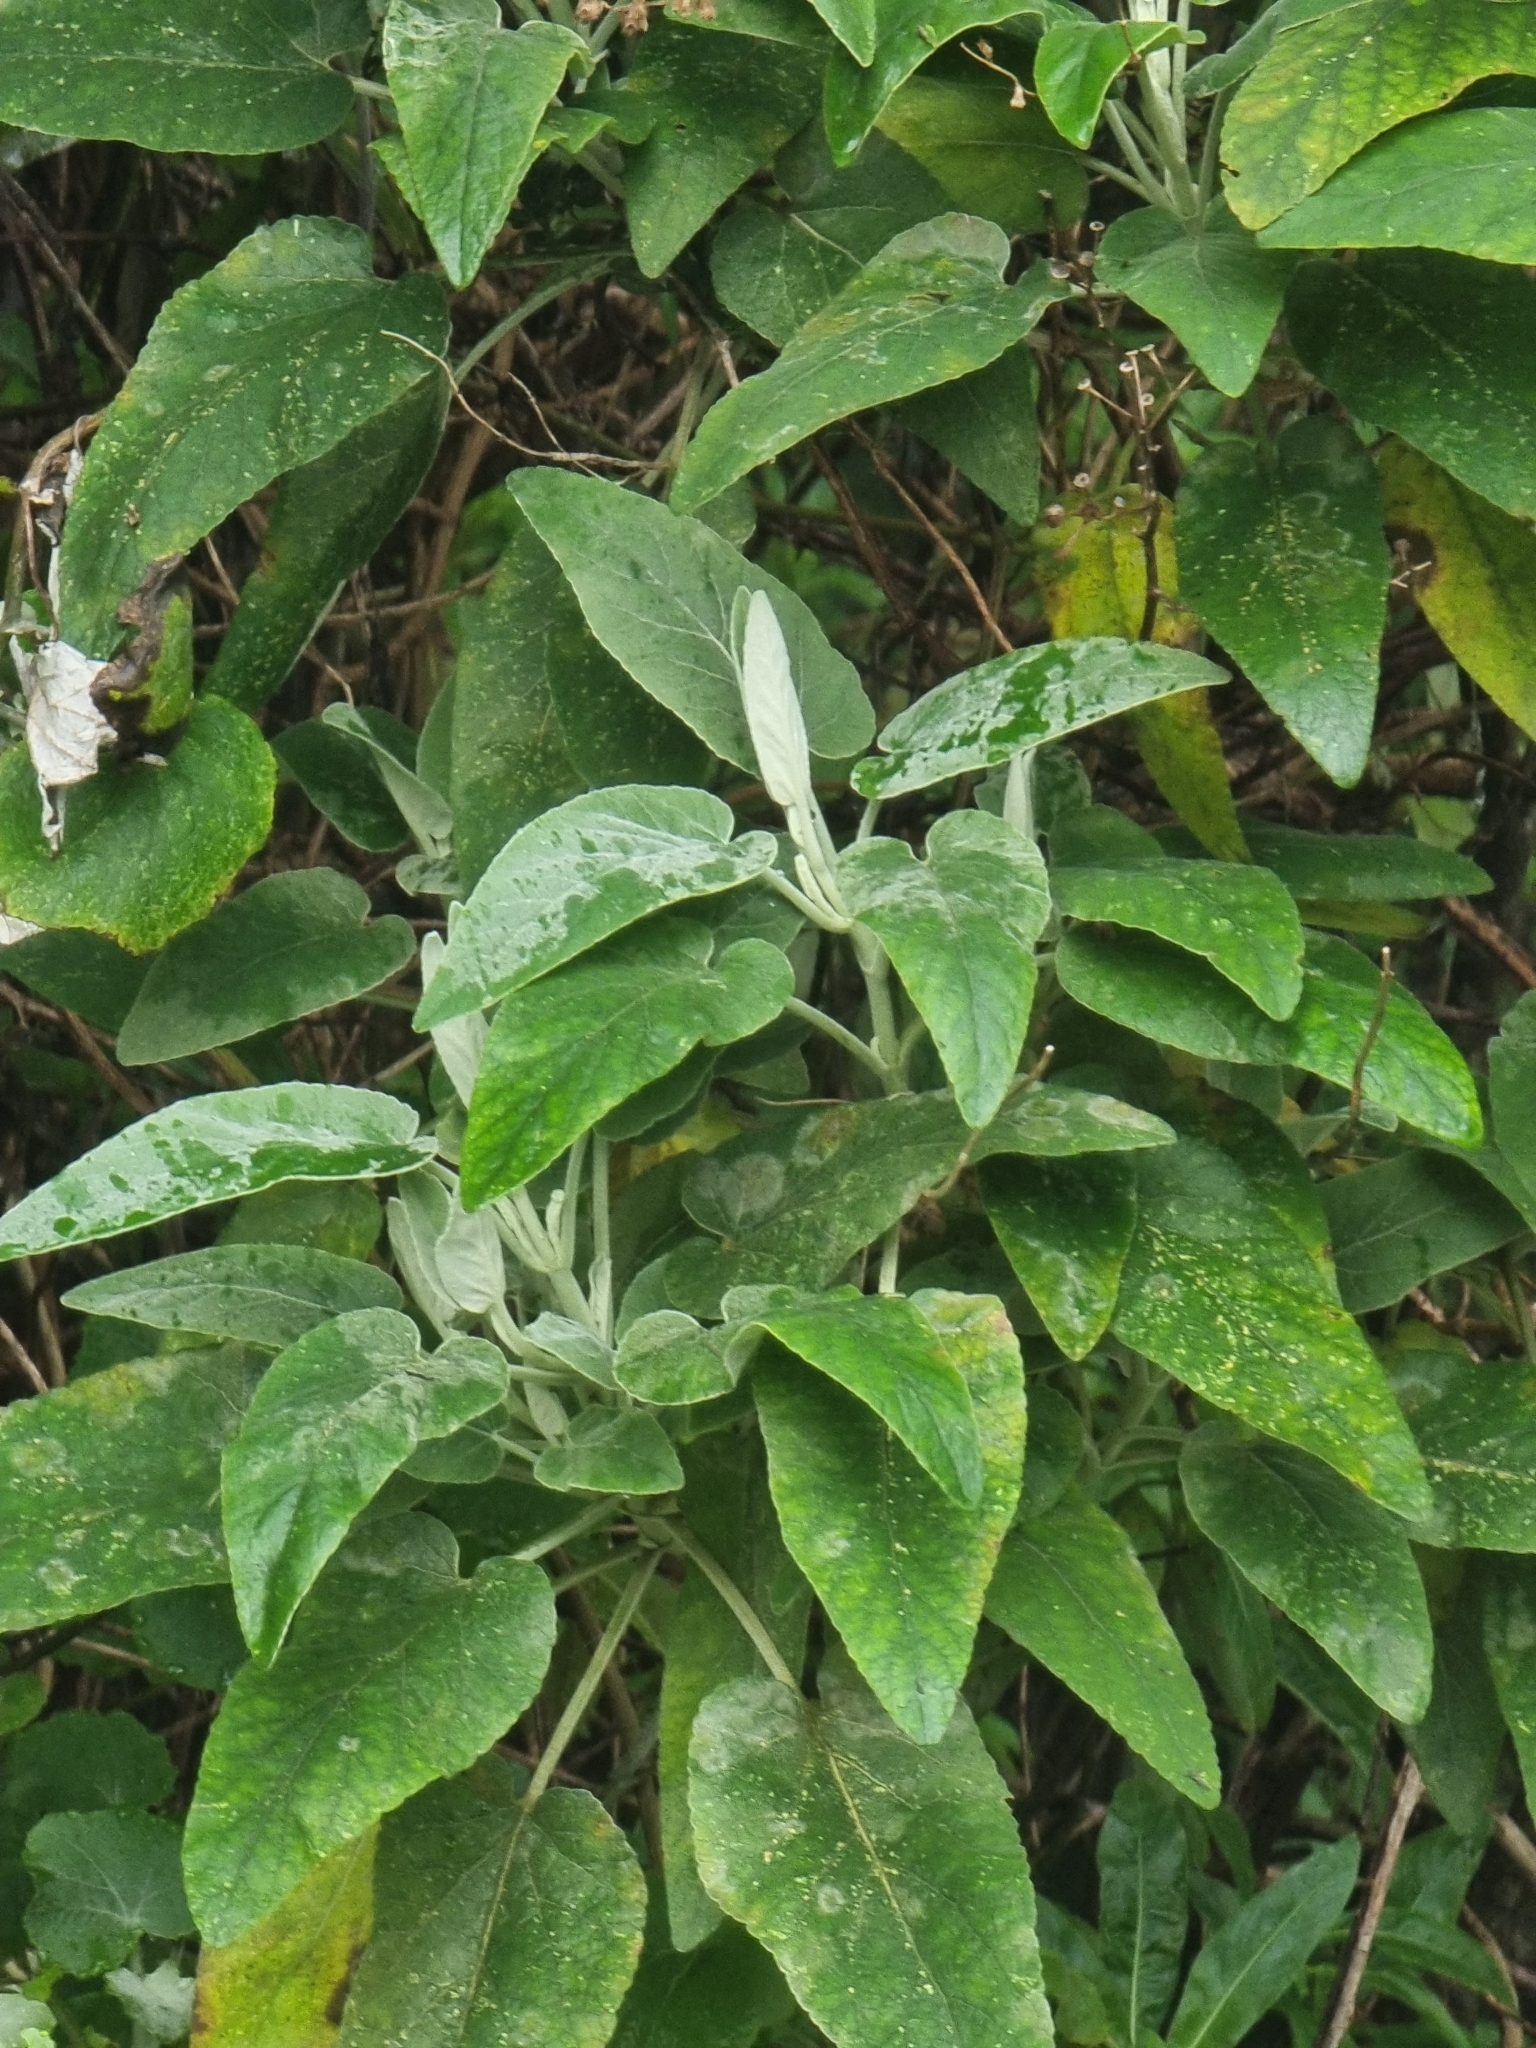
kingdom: Plantae
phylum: Tracheophyta
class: Magnoliopsida
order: Lamiales
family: Lamiaceae
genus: Sideritis
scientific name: Sideritis candicans
